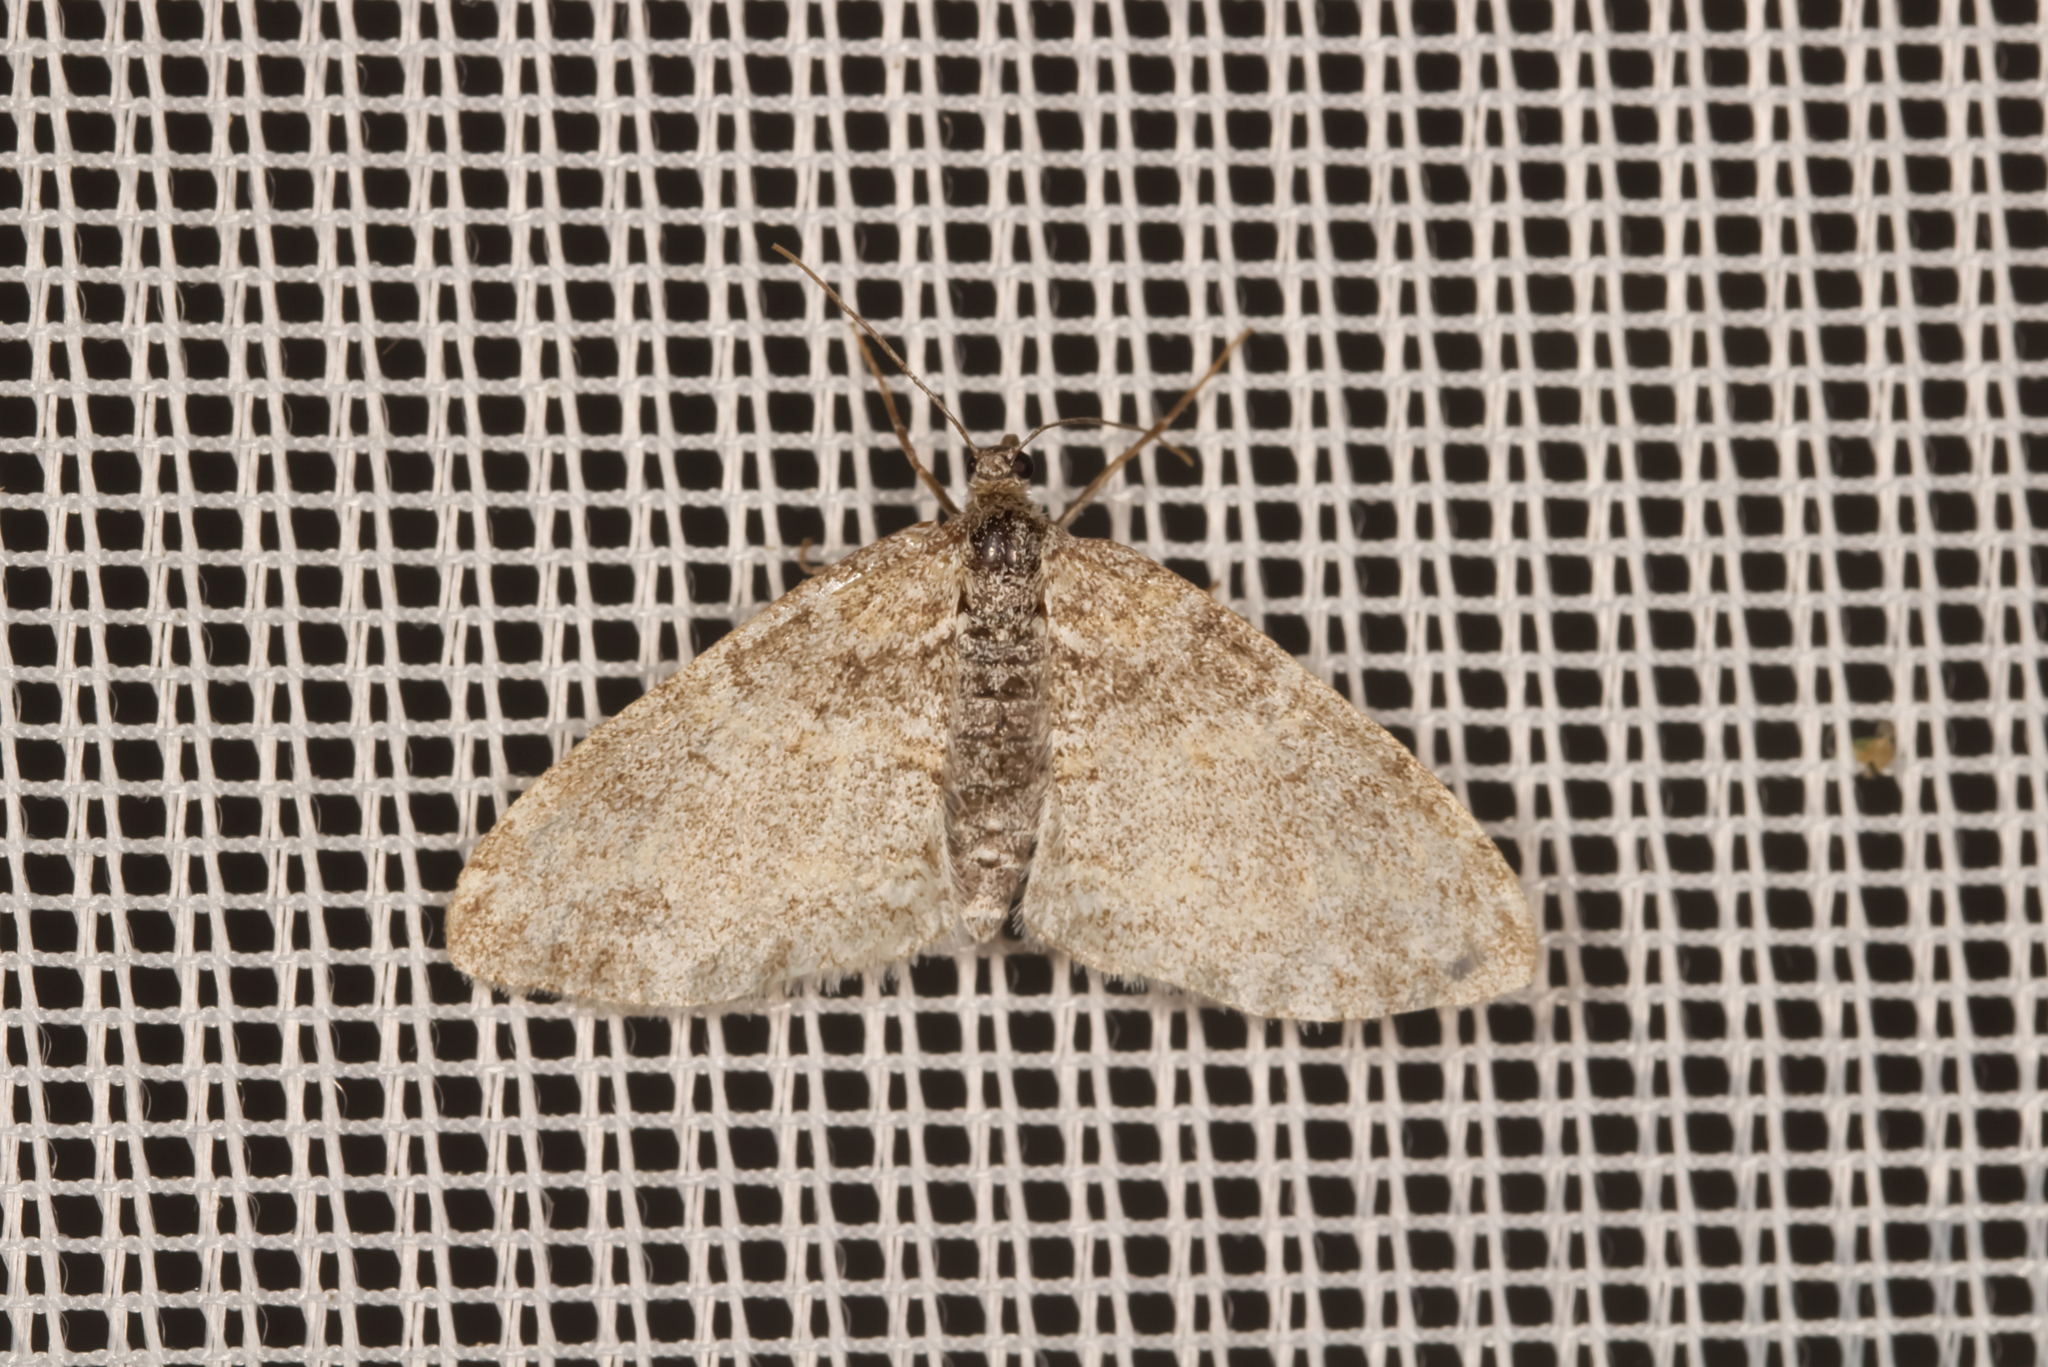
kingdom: Animalia
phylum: Arthropoda
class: Insecta
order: Lepidoptera
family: Geometridae
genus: Lobophora
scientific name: Lobophora halterata
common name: Seraphim
